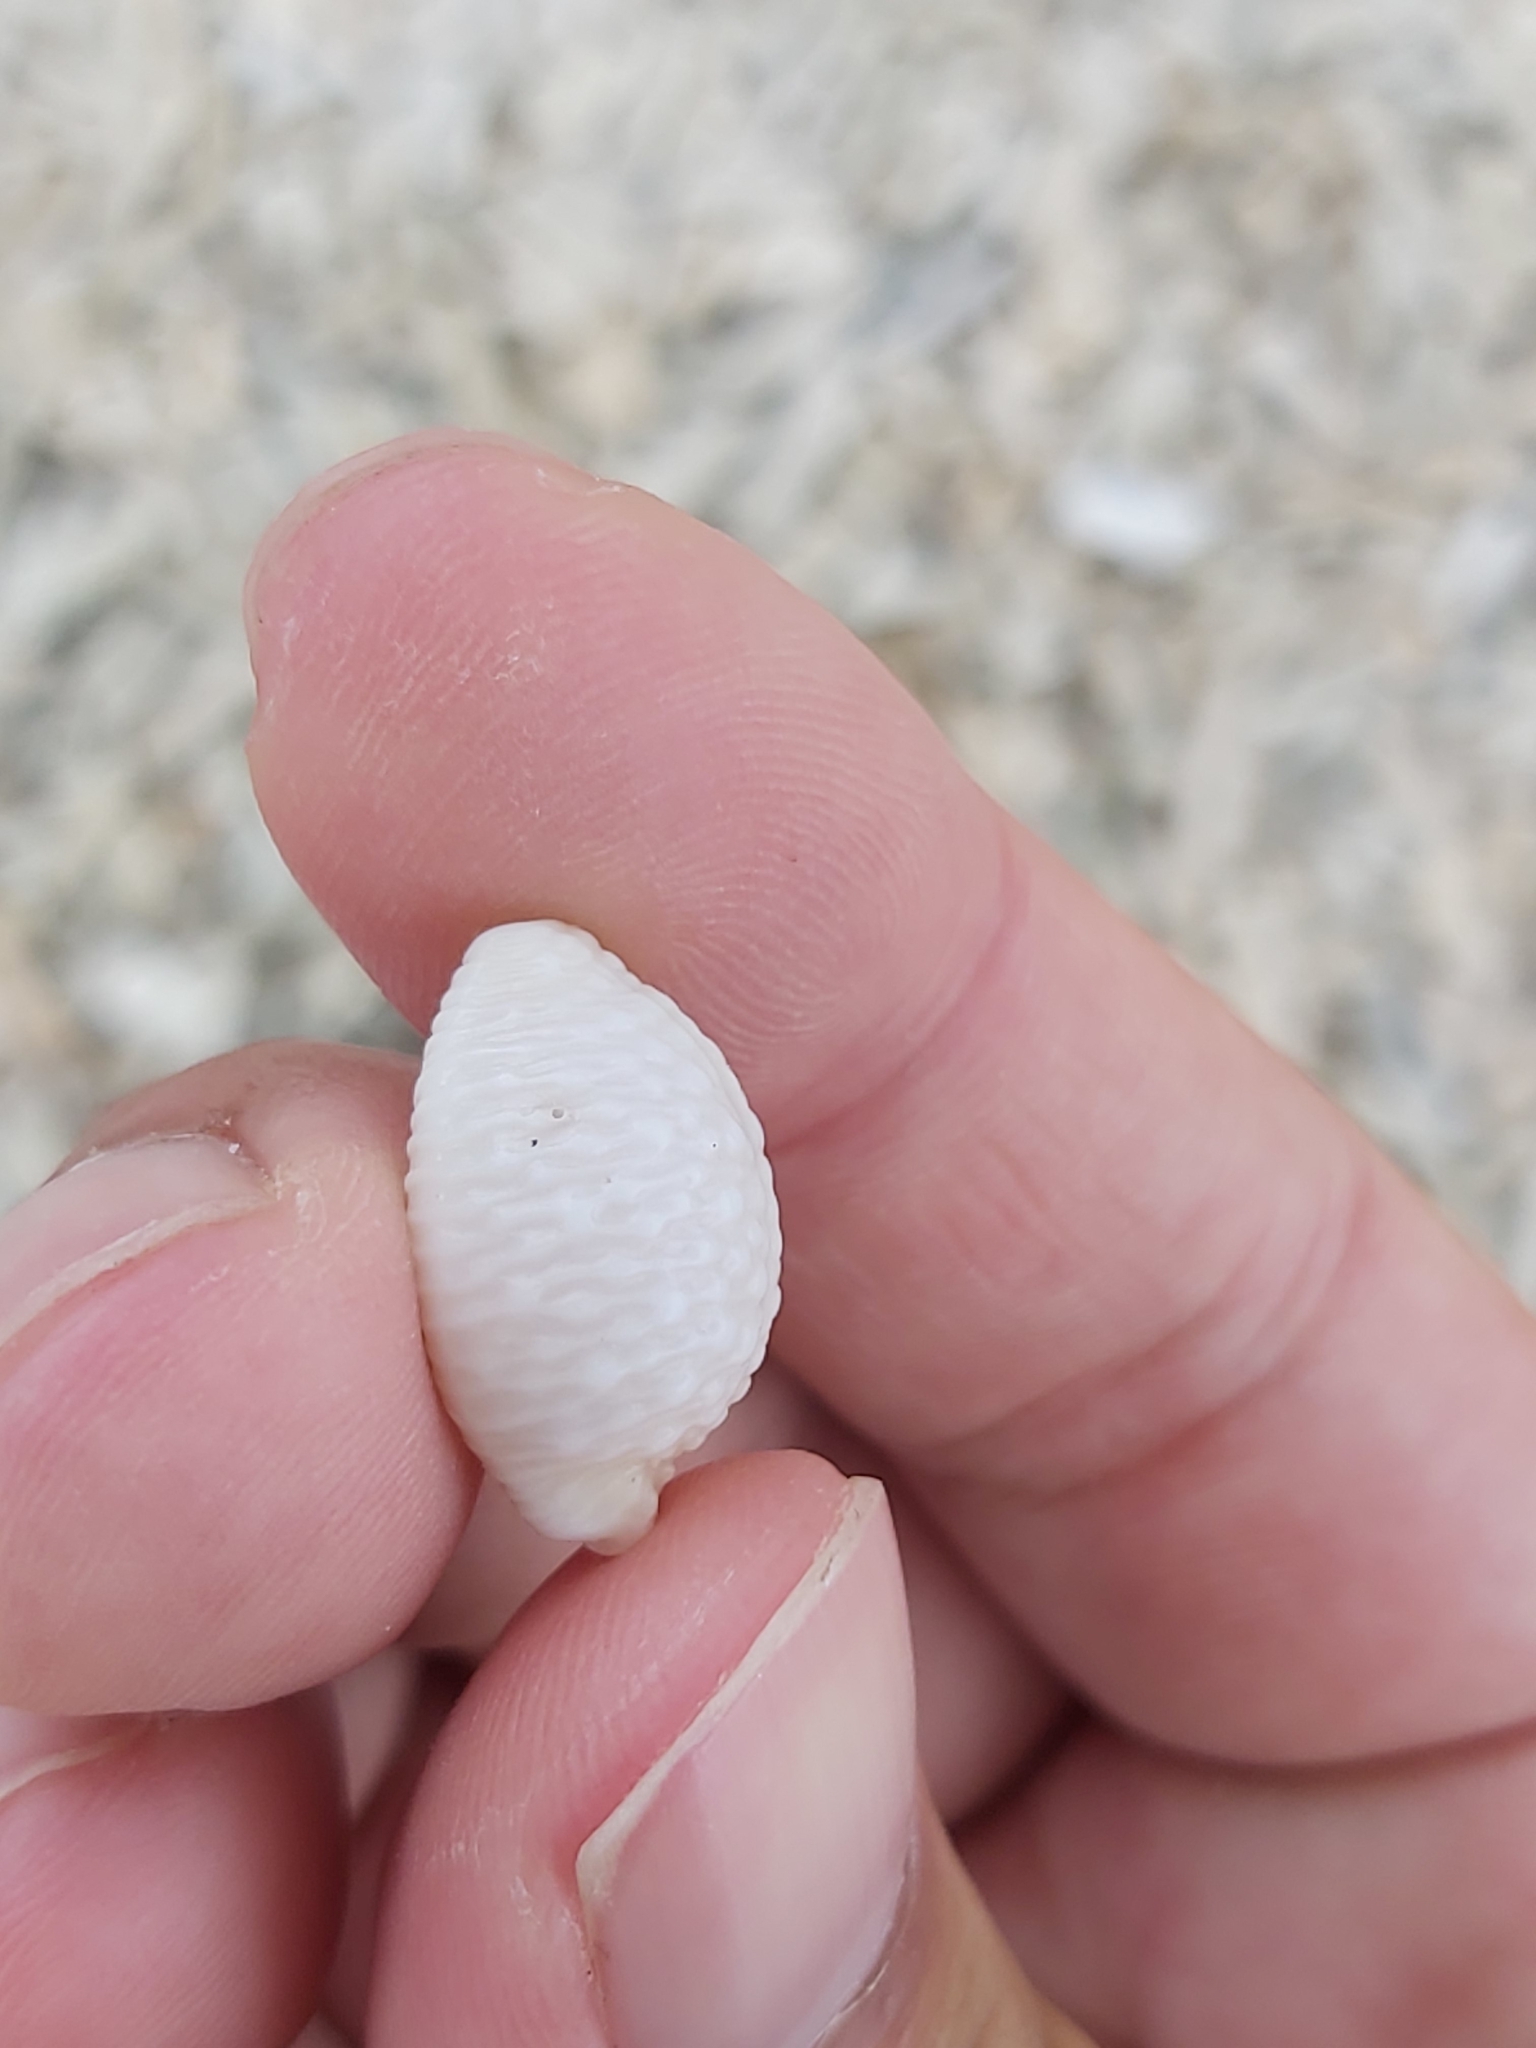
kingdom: Animalia
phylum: Mollusca
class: Gastropoda
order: Littorinimorpha
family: Cypraeidae
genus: Nucleolaria
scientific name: Nucleolaria nucleus
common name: Kernel cowry
